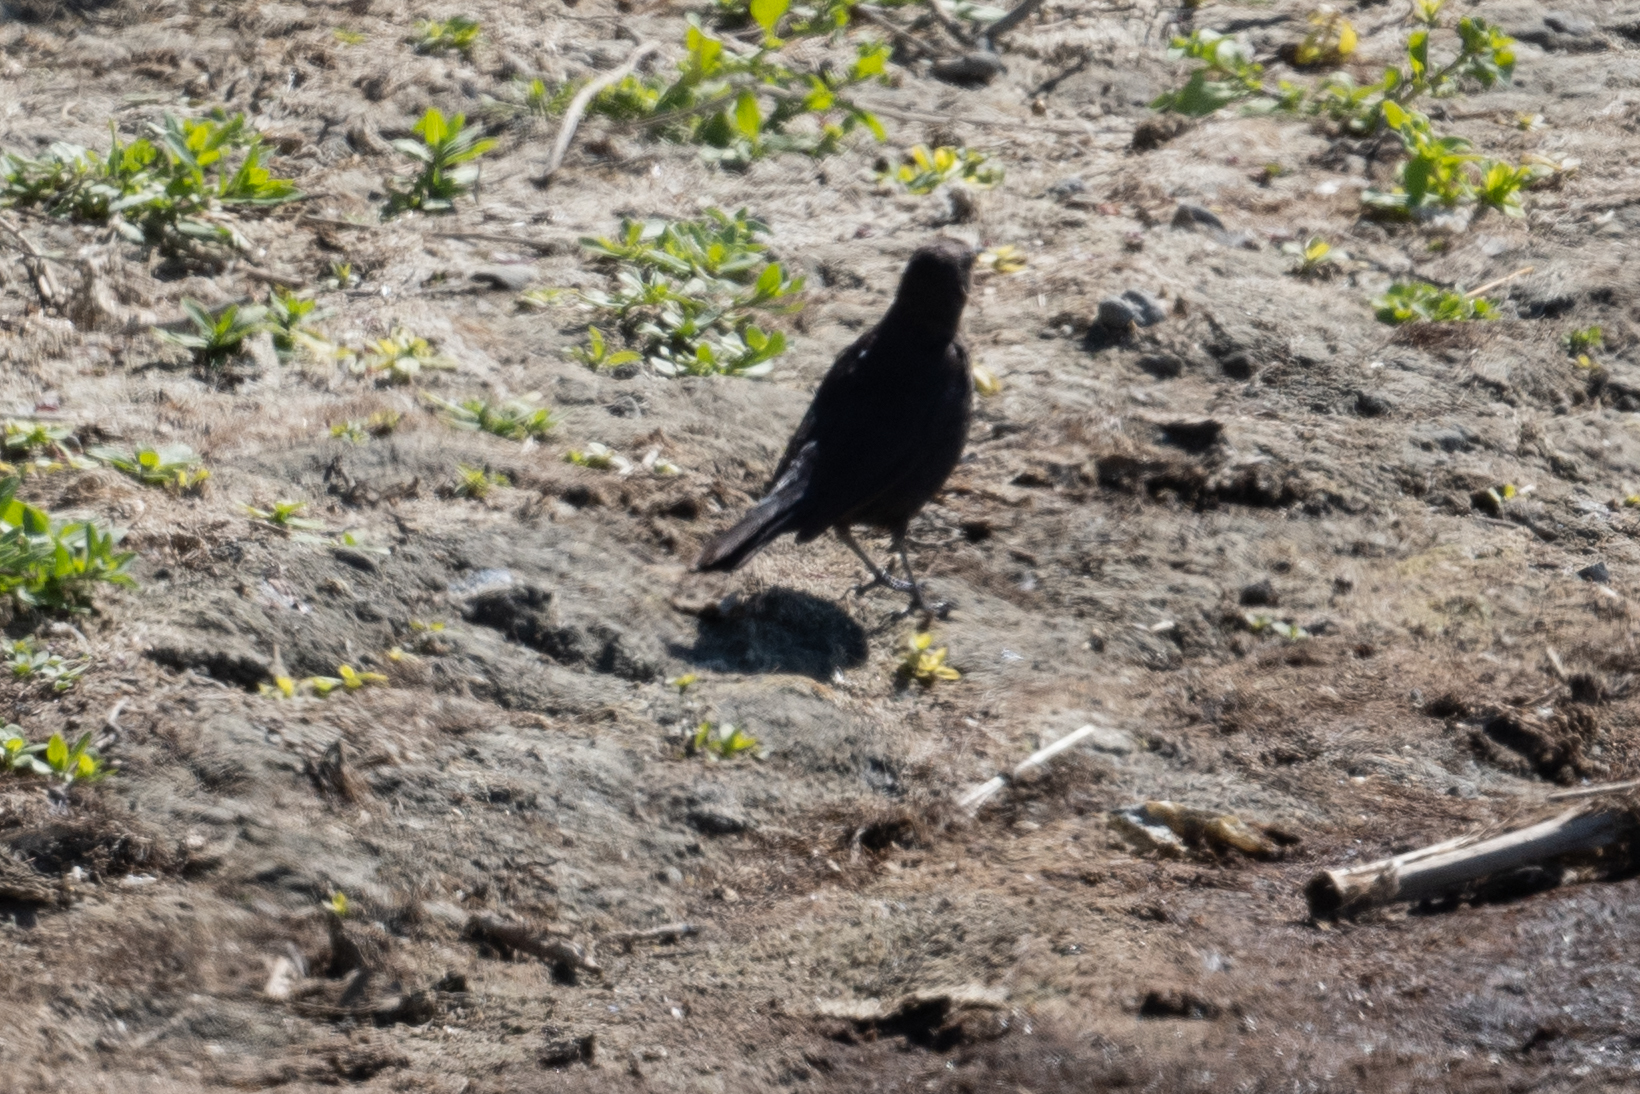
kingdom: Animalia
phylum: Chordata
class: Aves
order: Passeriformes
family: Icteridae
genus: Euphagus
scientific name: Euphagus cyanocephalus
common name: Brewer's blackbird
